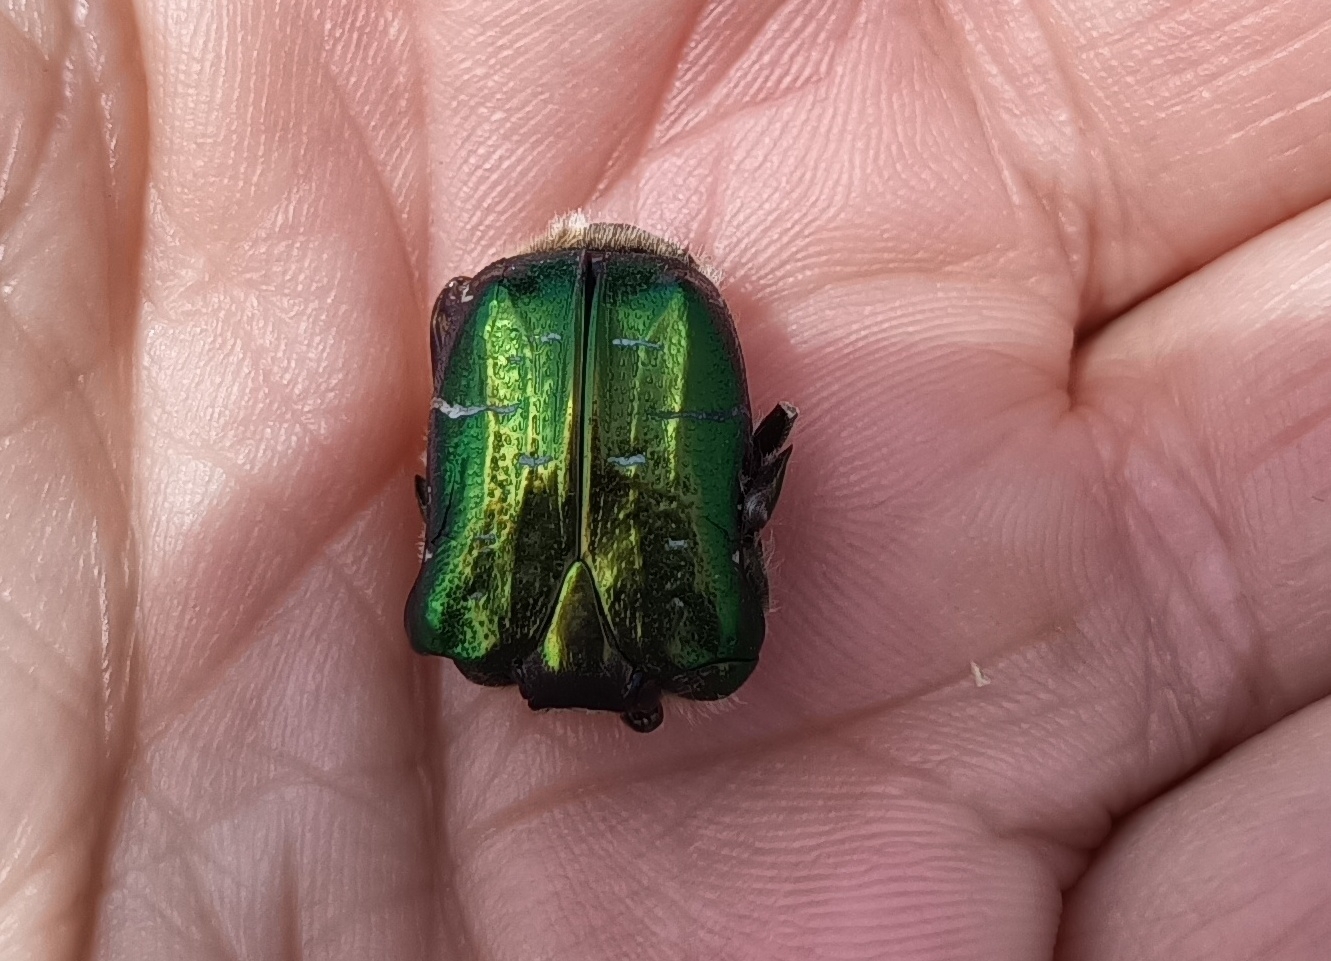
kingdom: Animalia
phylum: Arthropoda
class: Insecta
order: Coleoptera
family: Scarabaeidae
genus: Cetonia
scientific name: Cetonia aurata
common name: Rose chafer
